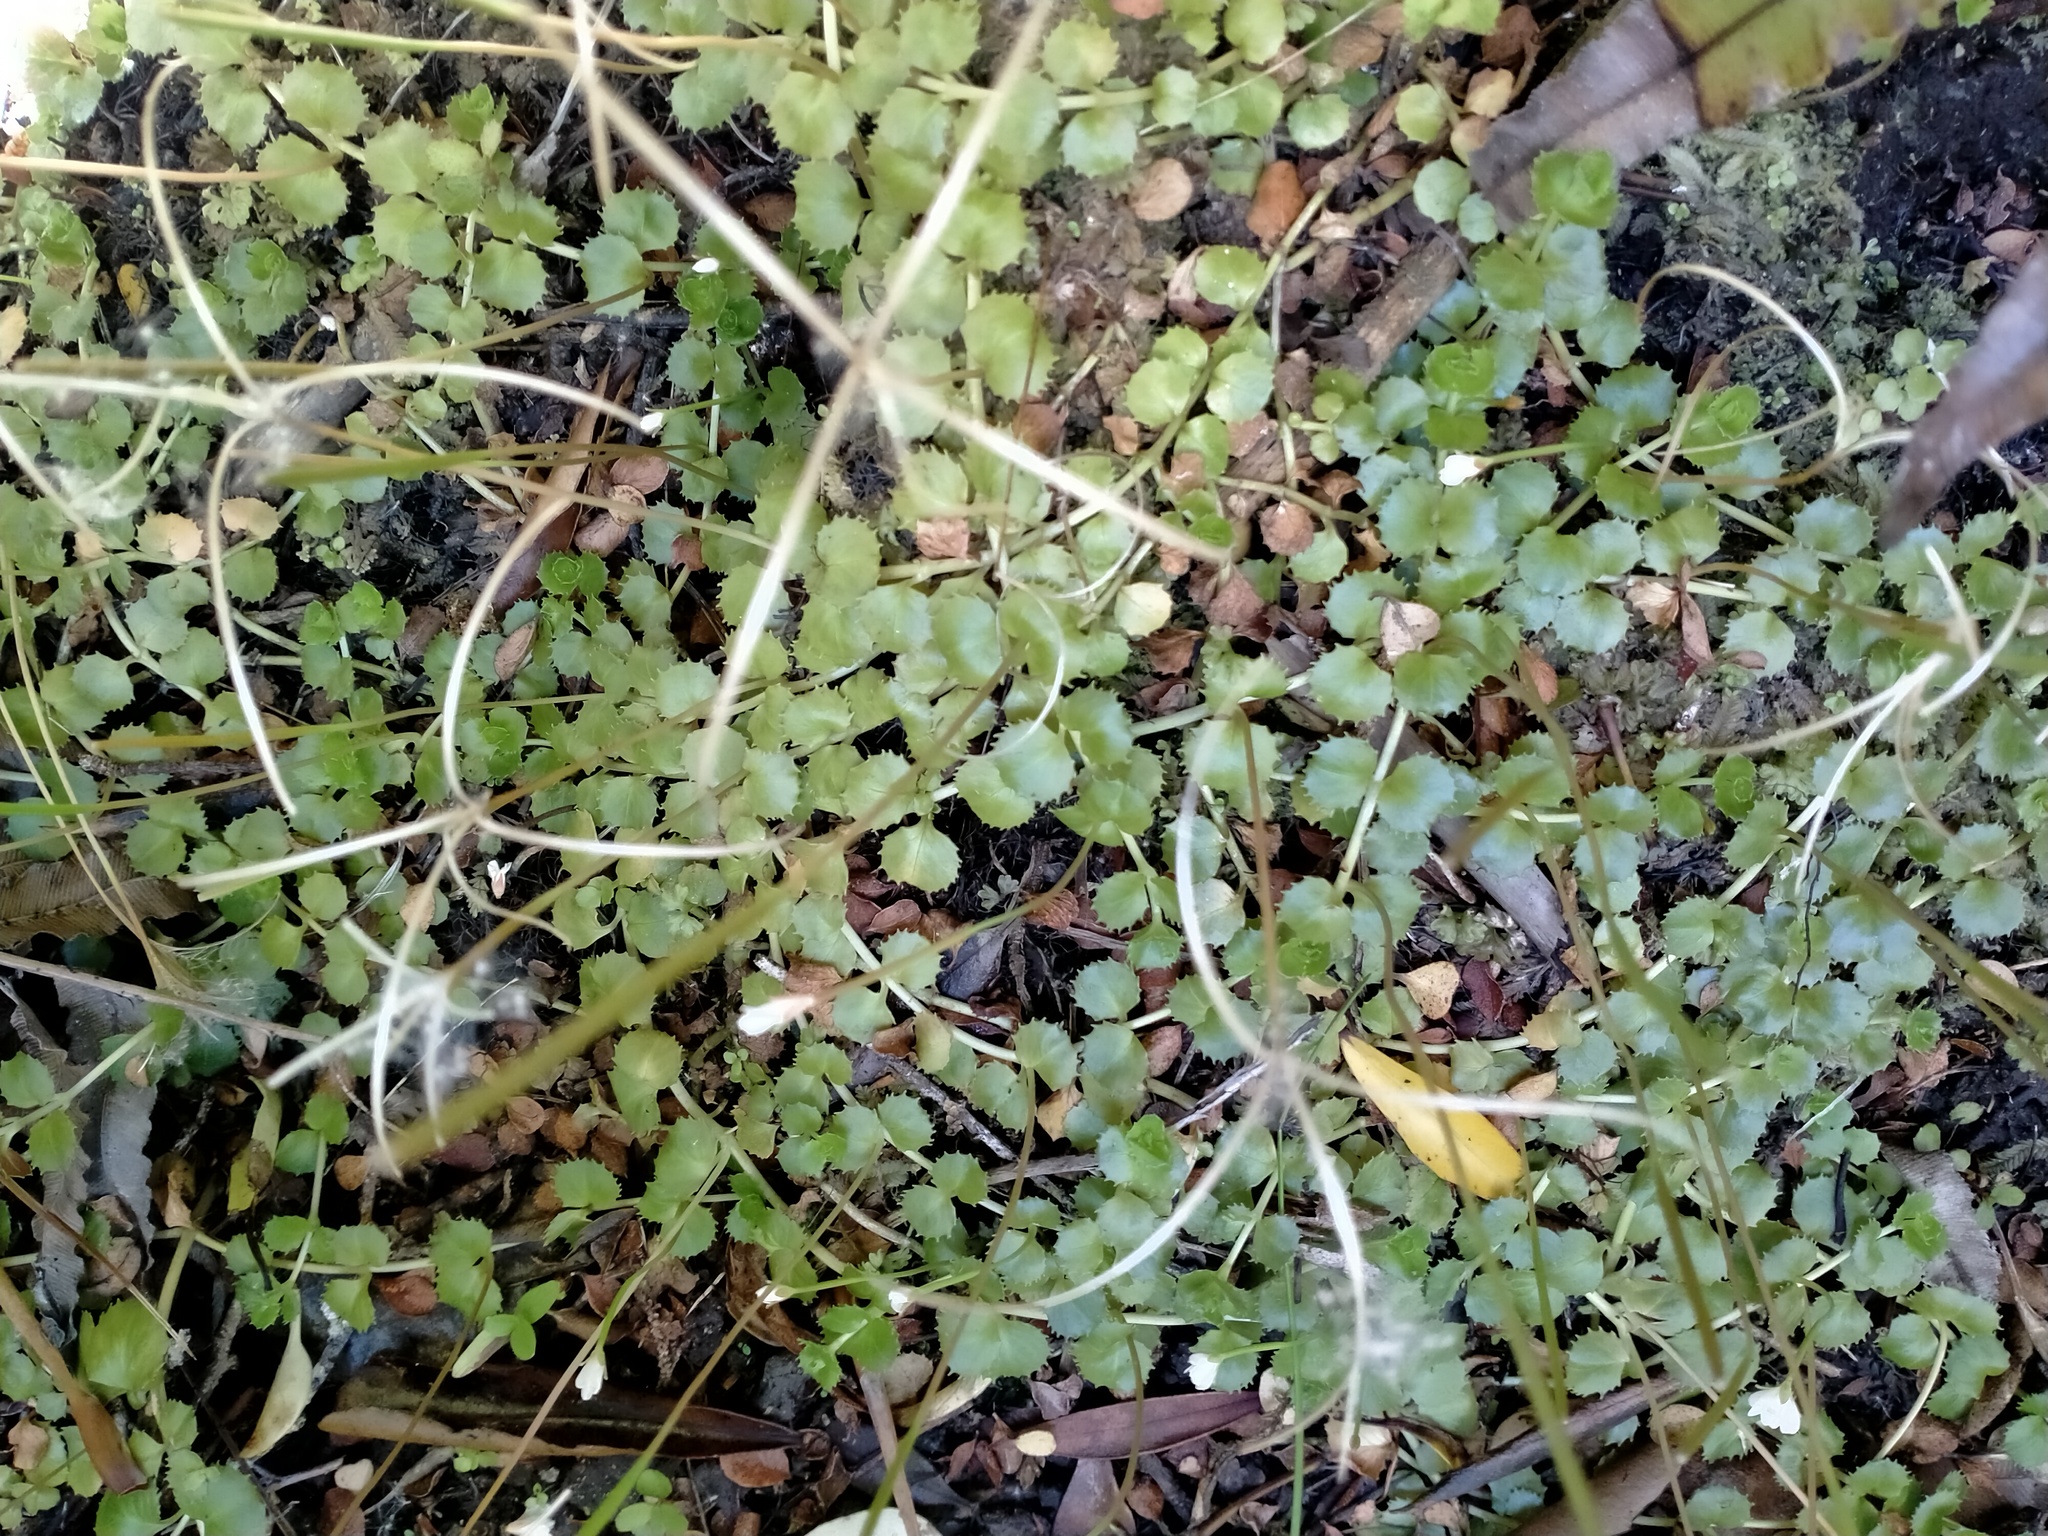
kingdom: Plantae
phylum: Tracheophyta
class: Magnoliopsida
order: Myrtales
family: Onagraceae
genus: Epilobium
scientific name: Epilobium pedunculare
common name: Rockery willowherb
